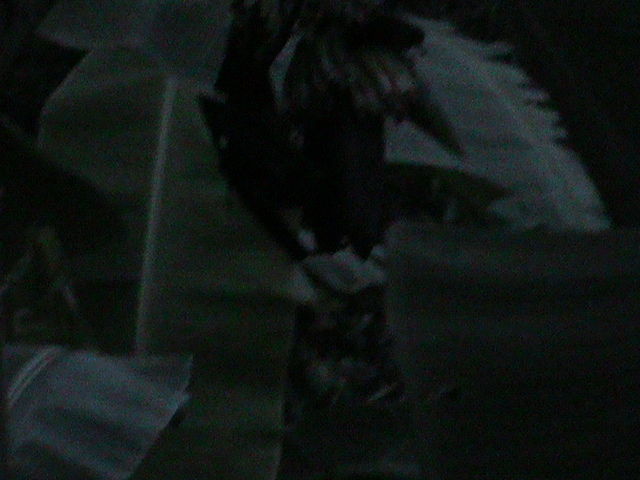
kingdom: Animalia
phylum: Chordata
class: Mammalia
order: Chiroptera
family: Pteropodidae
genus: Pteropus
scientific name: Pteropus vampyrus
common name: Large flying fox
